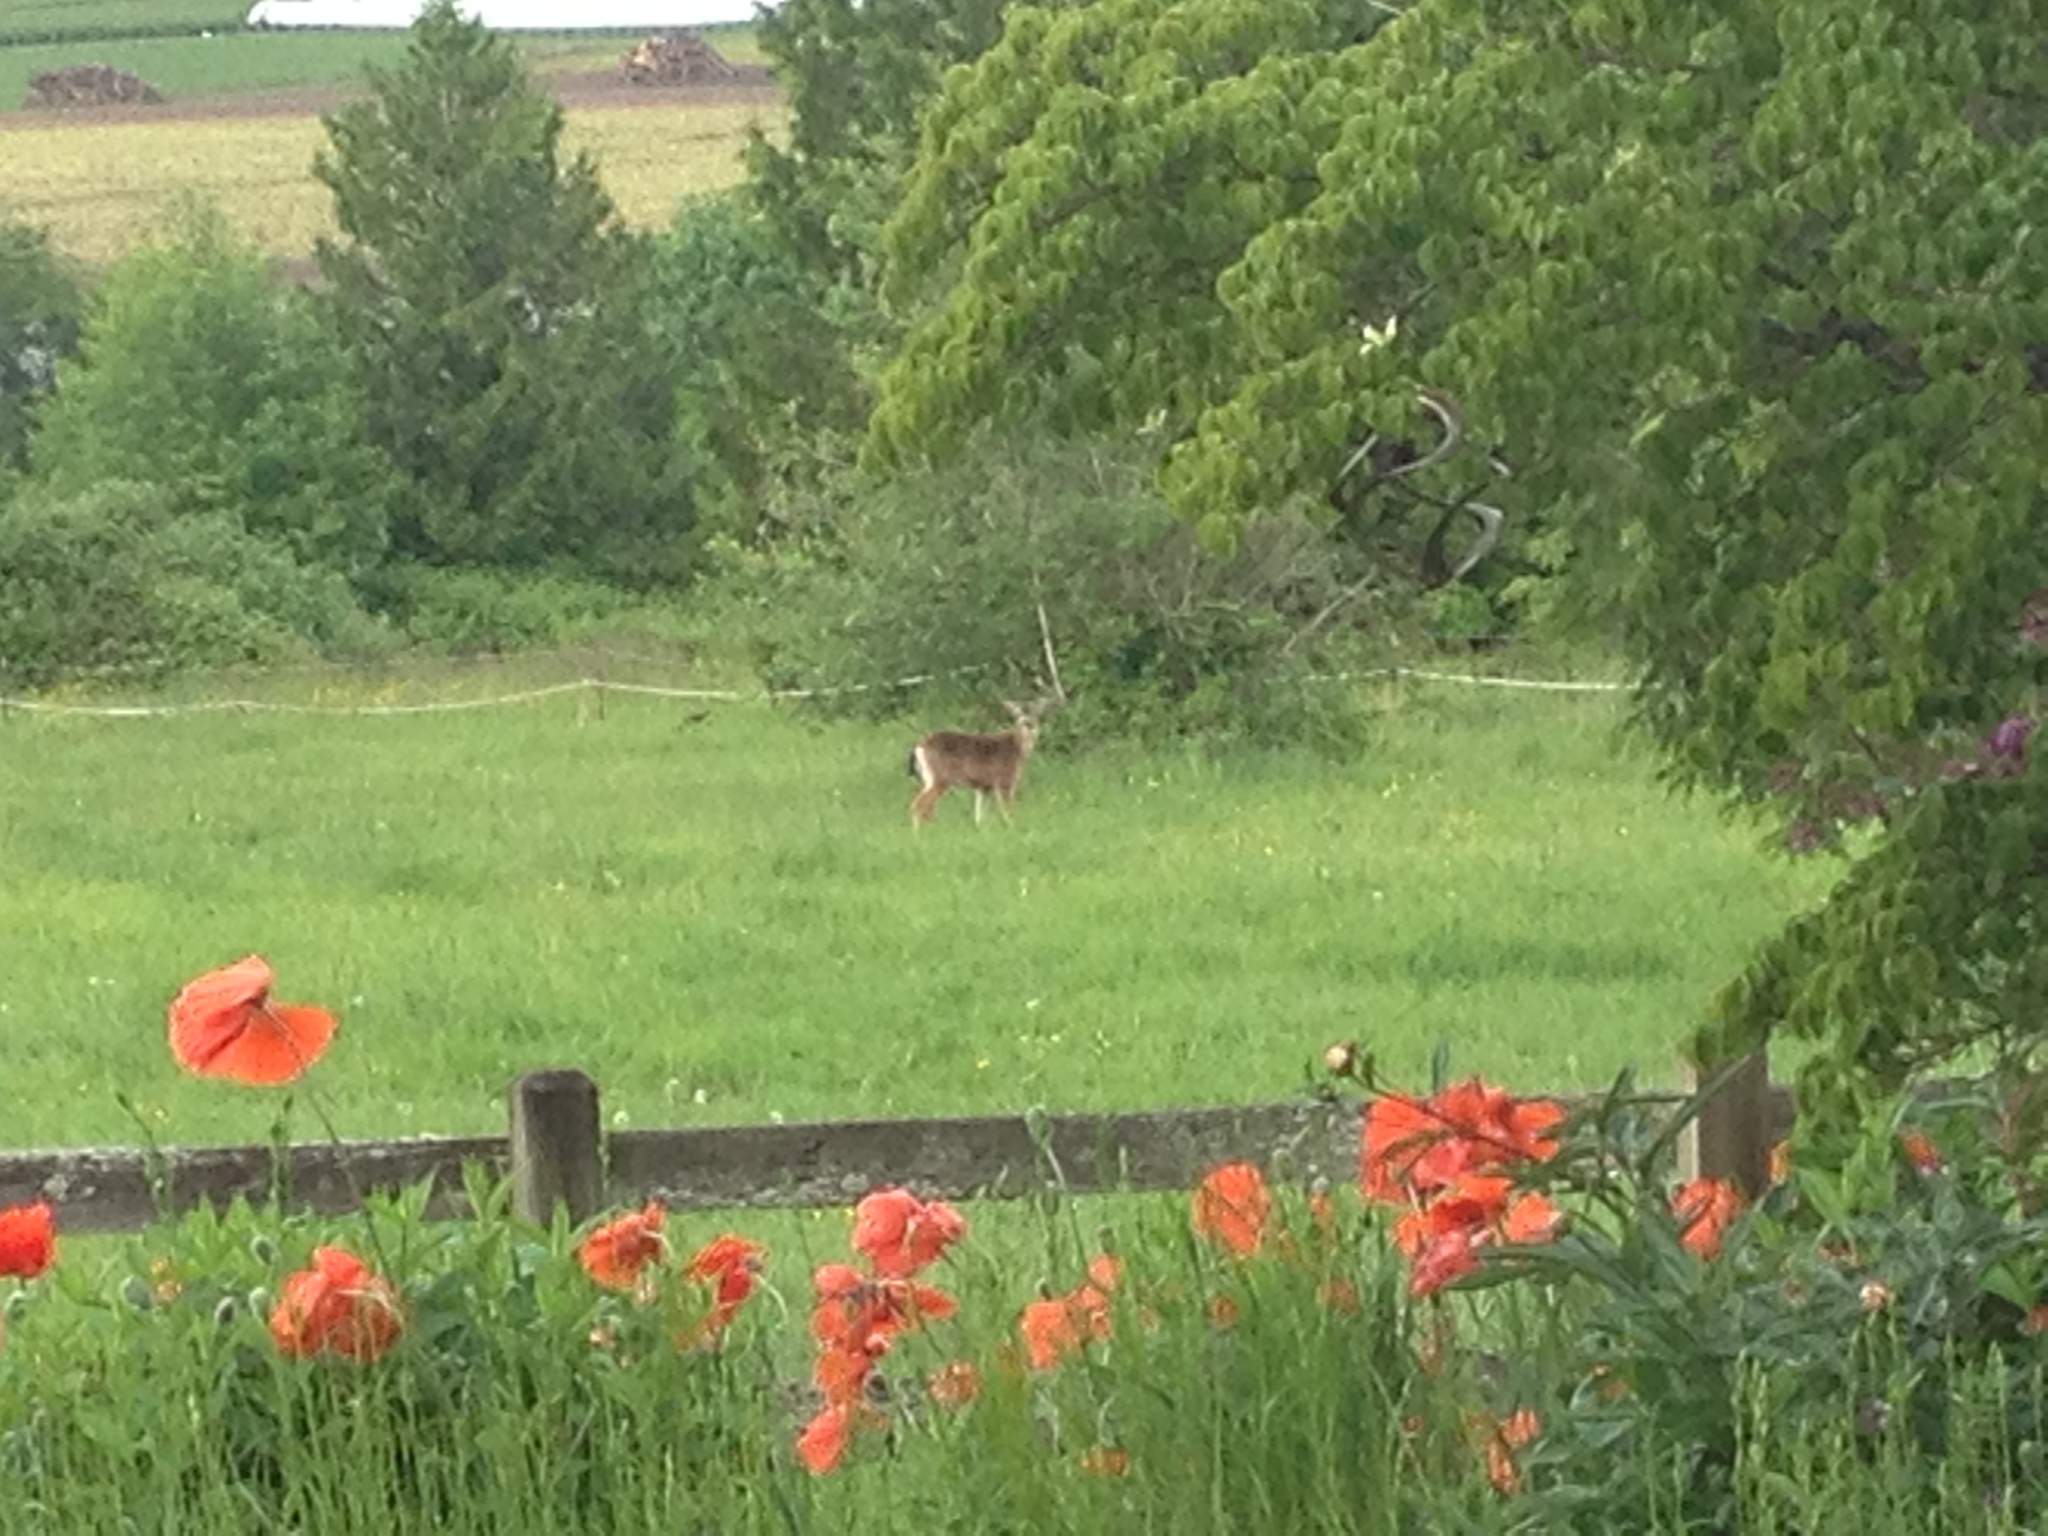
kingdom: Animalia
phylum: Chordata
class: Mammalia
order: Artiodactyla
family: Cervidae
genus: Odocoileus
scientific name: Odocoileus hemionus
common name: Mule deer
